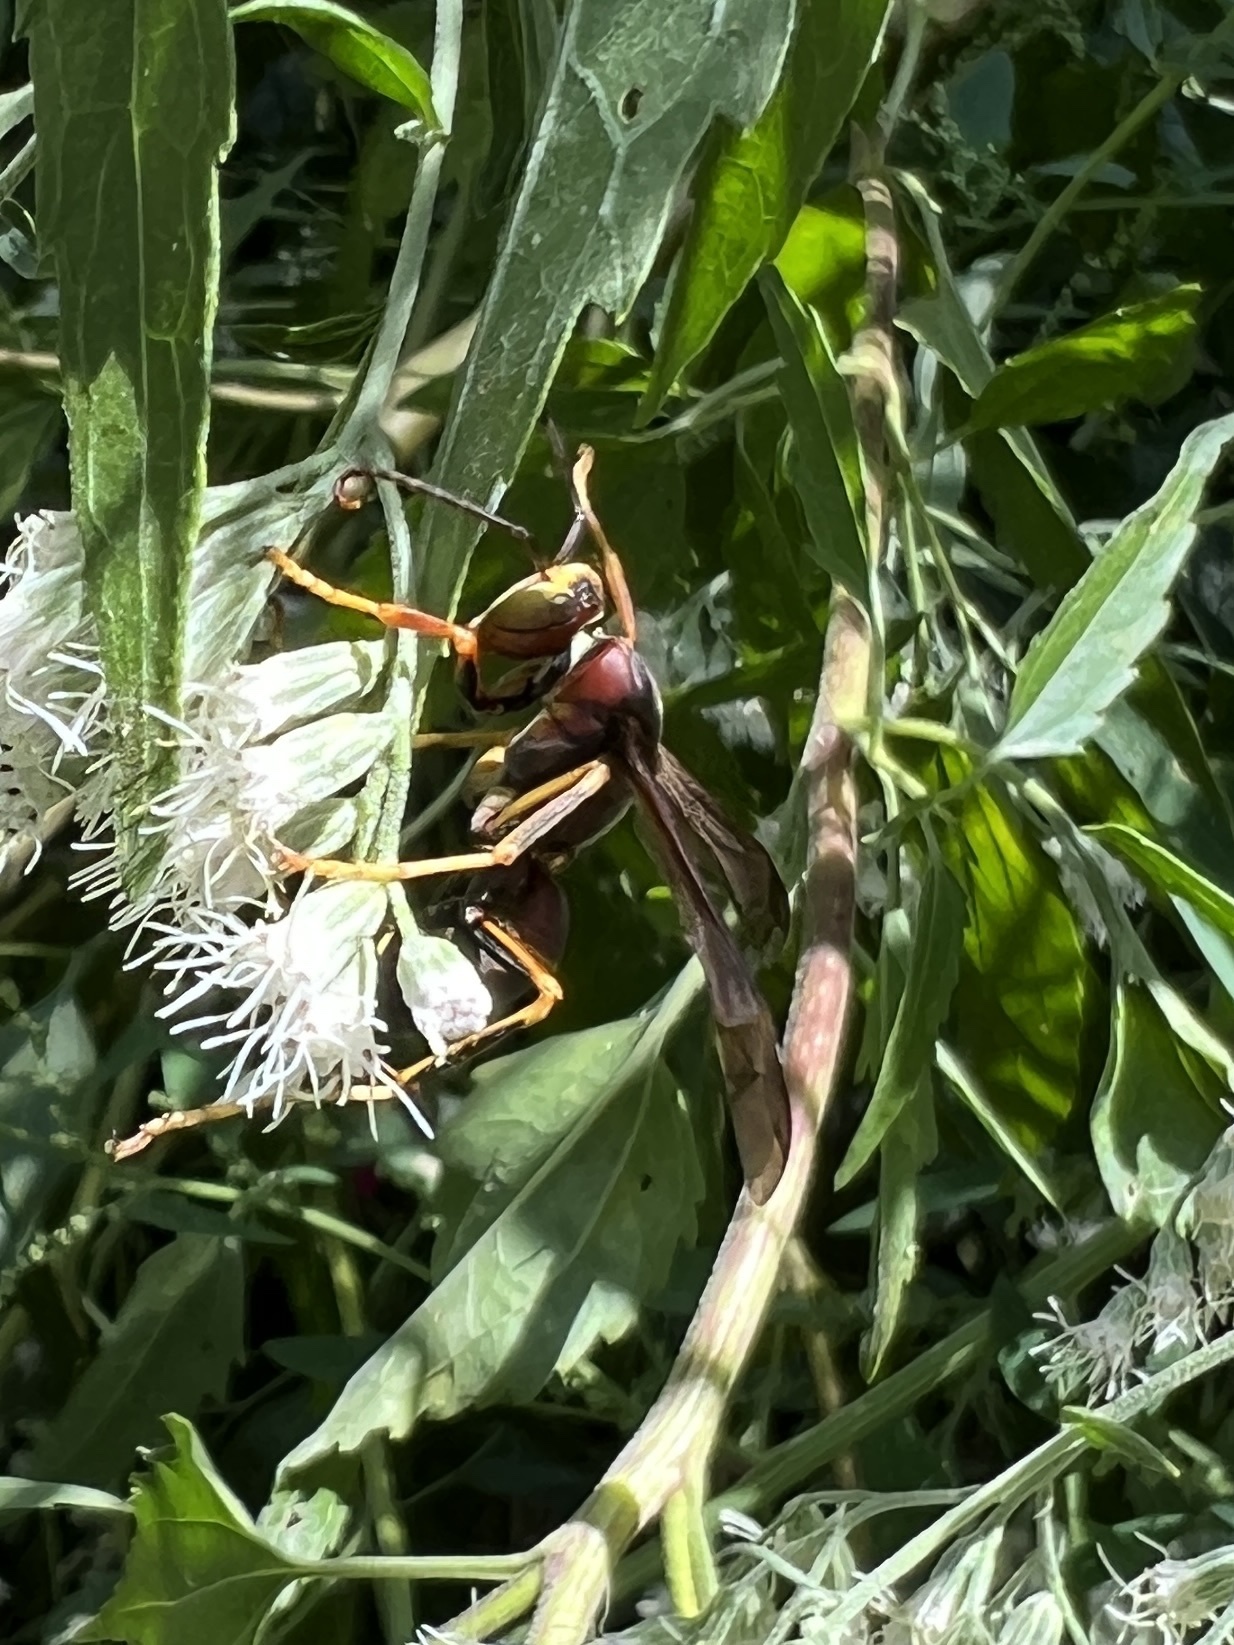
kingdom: Animalia
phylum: Arthropoda
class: Insecta
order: Hymenoptera
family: Eumenidae
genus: Polistes
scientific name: Polistes metricus
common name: Metric paper wasp
